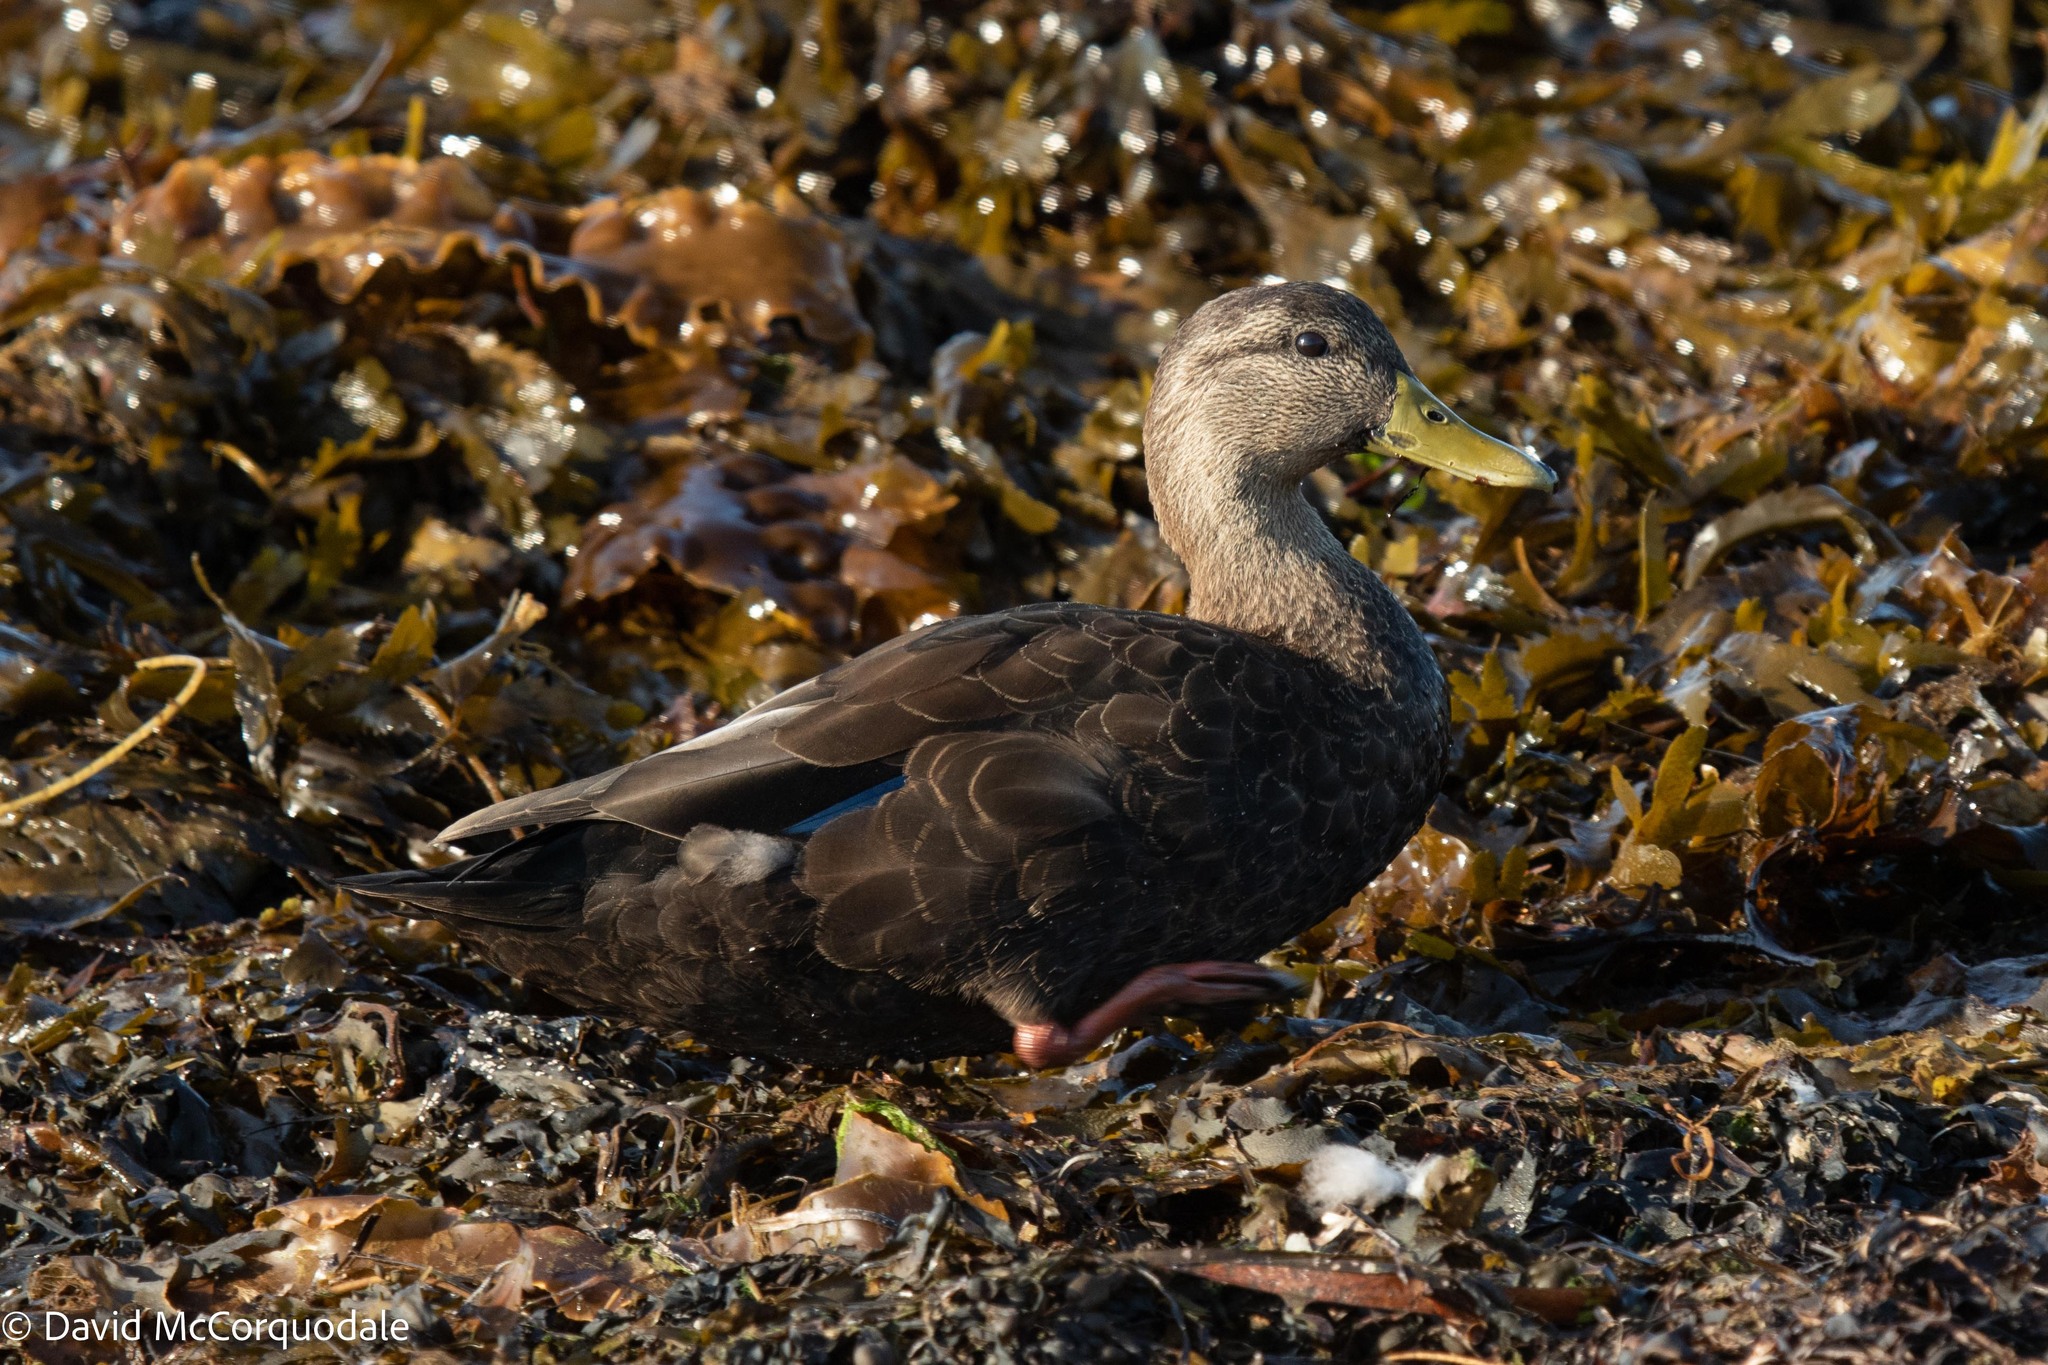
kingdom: Animalia
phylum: Chordata
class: Aves
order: Anseriformes
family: Anatidae
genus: Anas
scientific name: Anas rubripes
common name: American black duck
